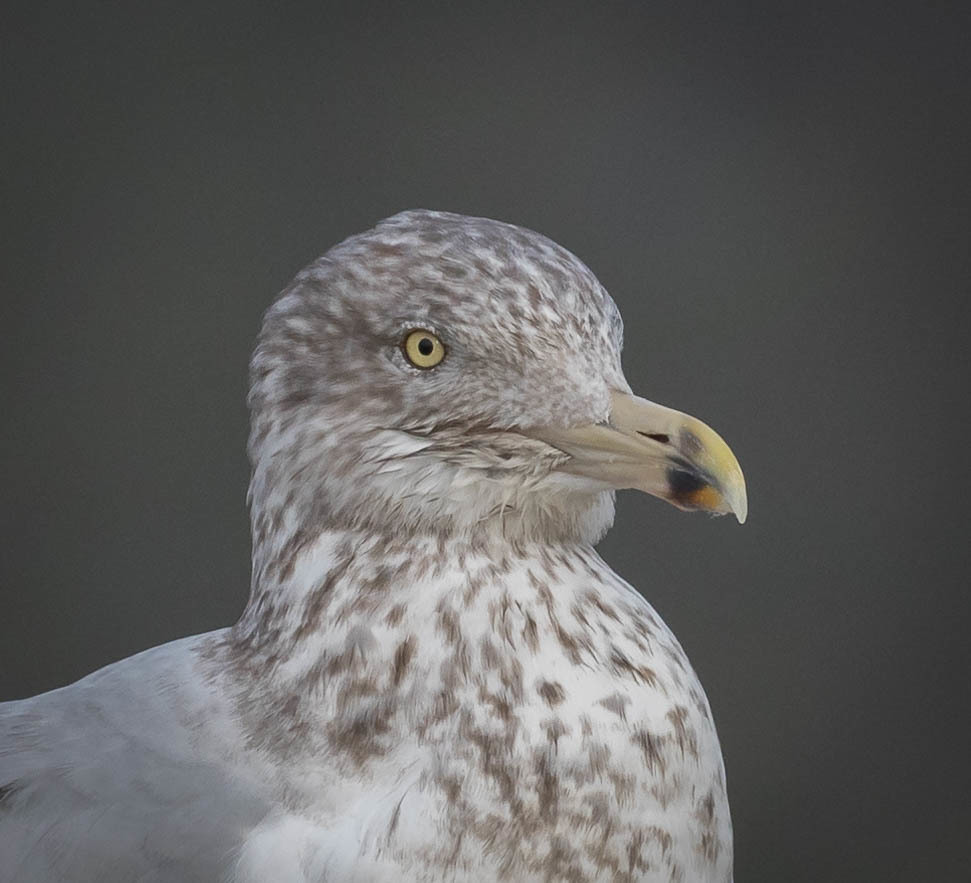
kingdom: Animalia
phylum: Chordata
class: Aves
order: Charadriiformes
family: Laridae
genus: Larus
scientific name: Larus argentatus
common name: Herring gull
